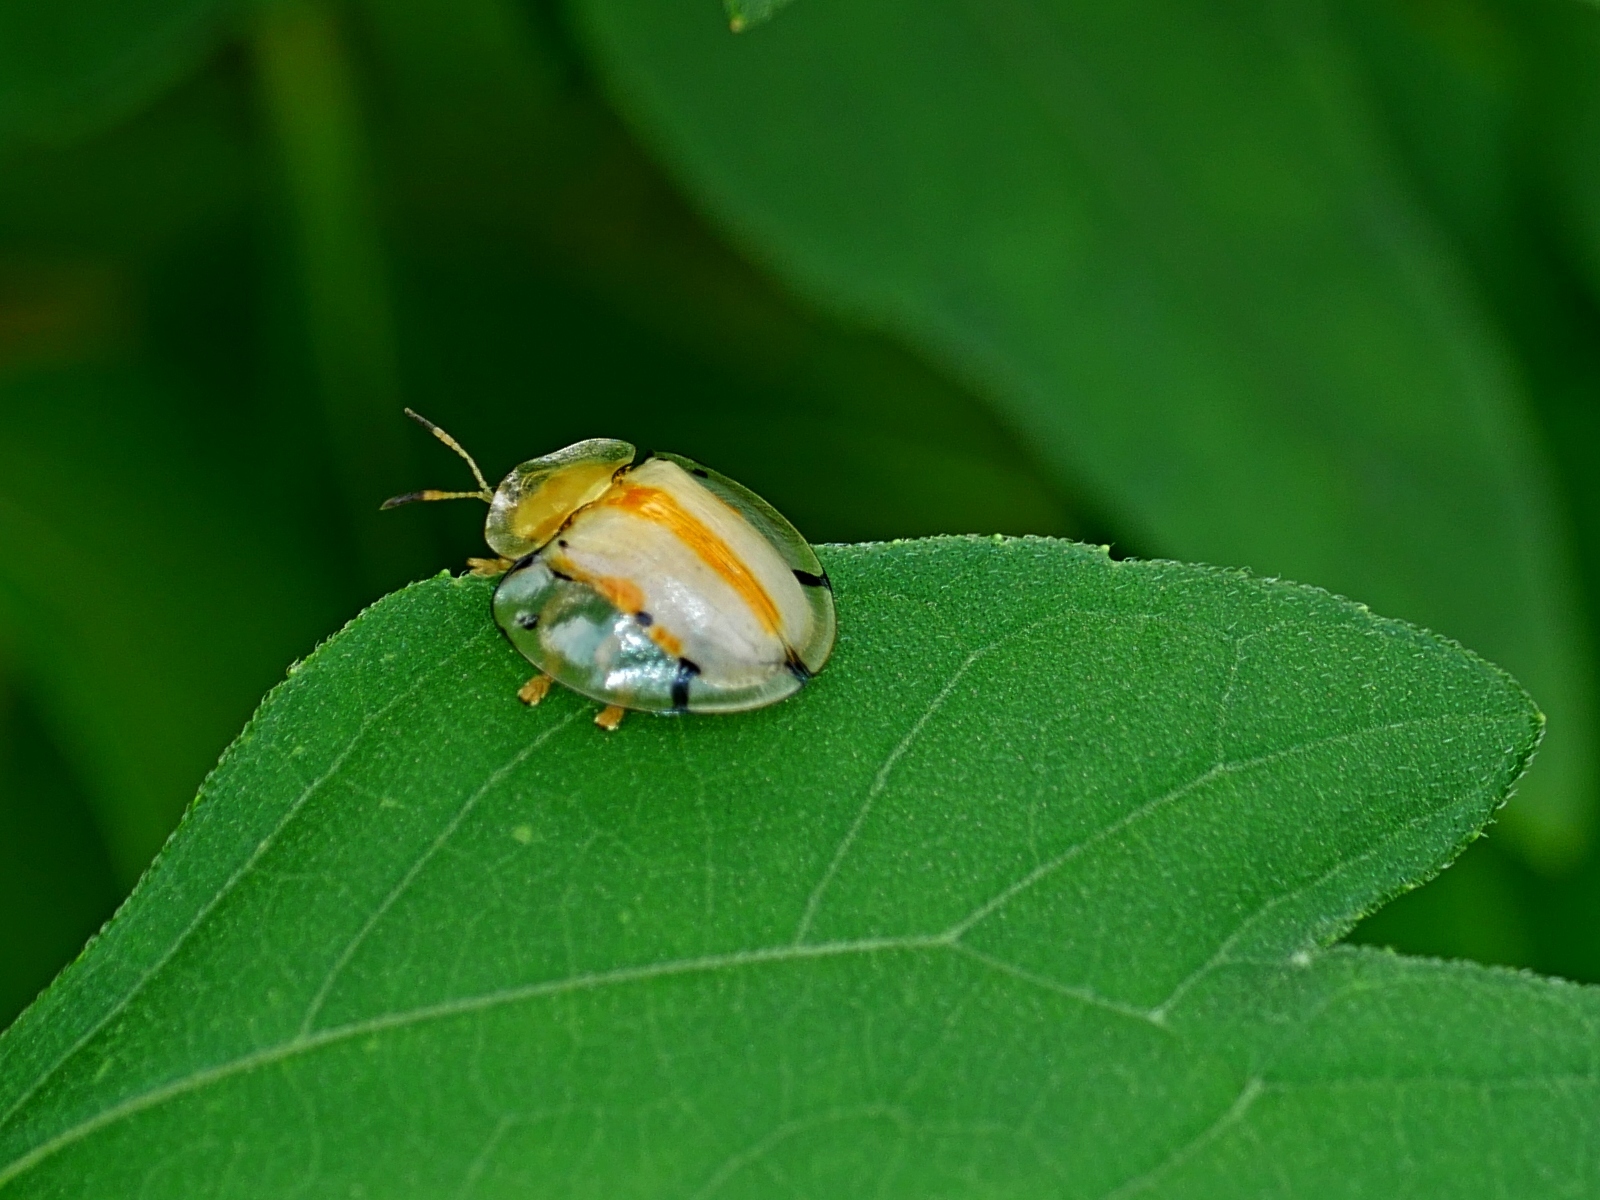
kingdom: Animalia
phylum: Arthropoda
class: Insecta
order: Coleoptera
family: Chrysomelidae
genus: Aspidimorpha
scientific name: Aspidimorpha miliaris
